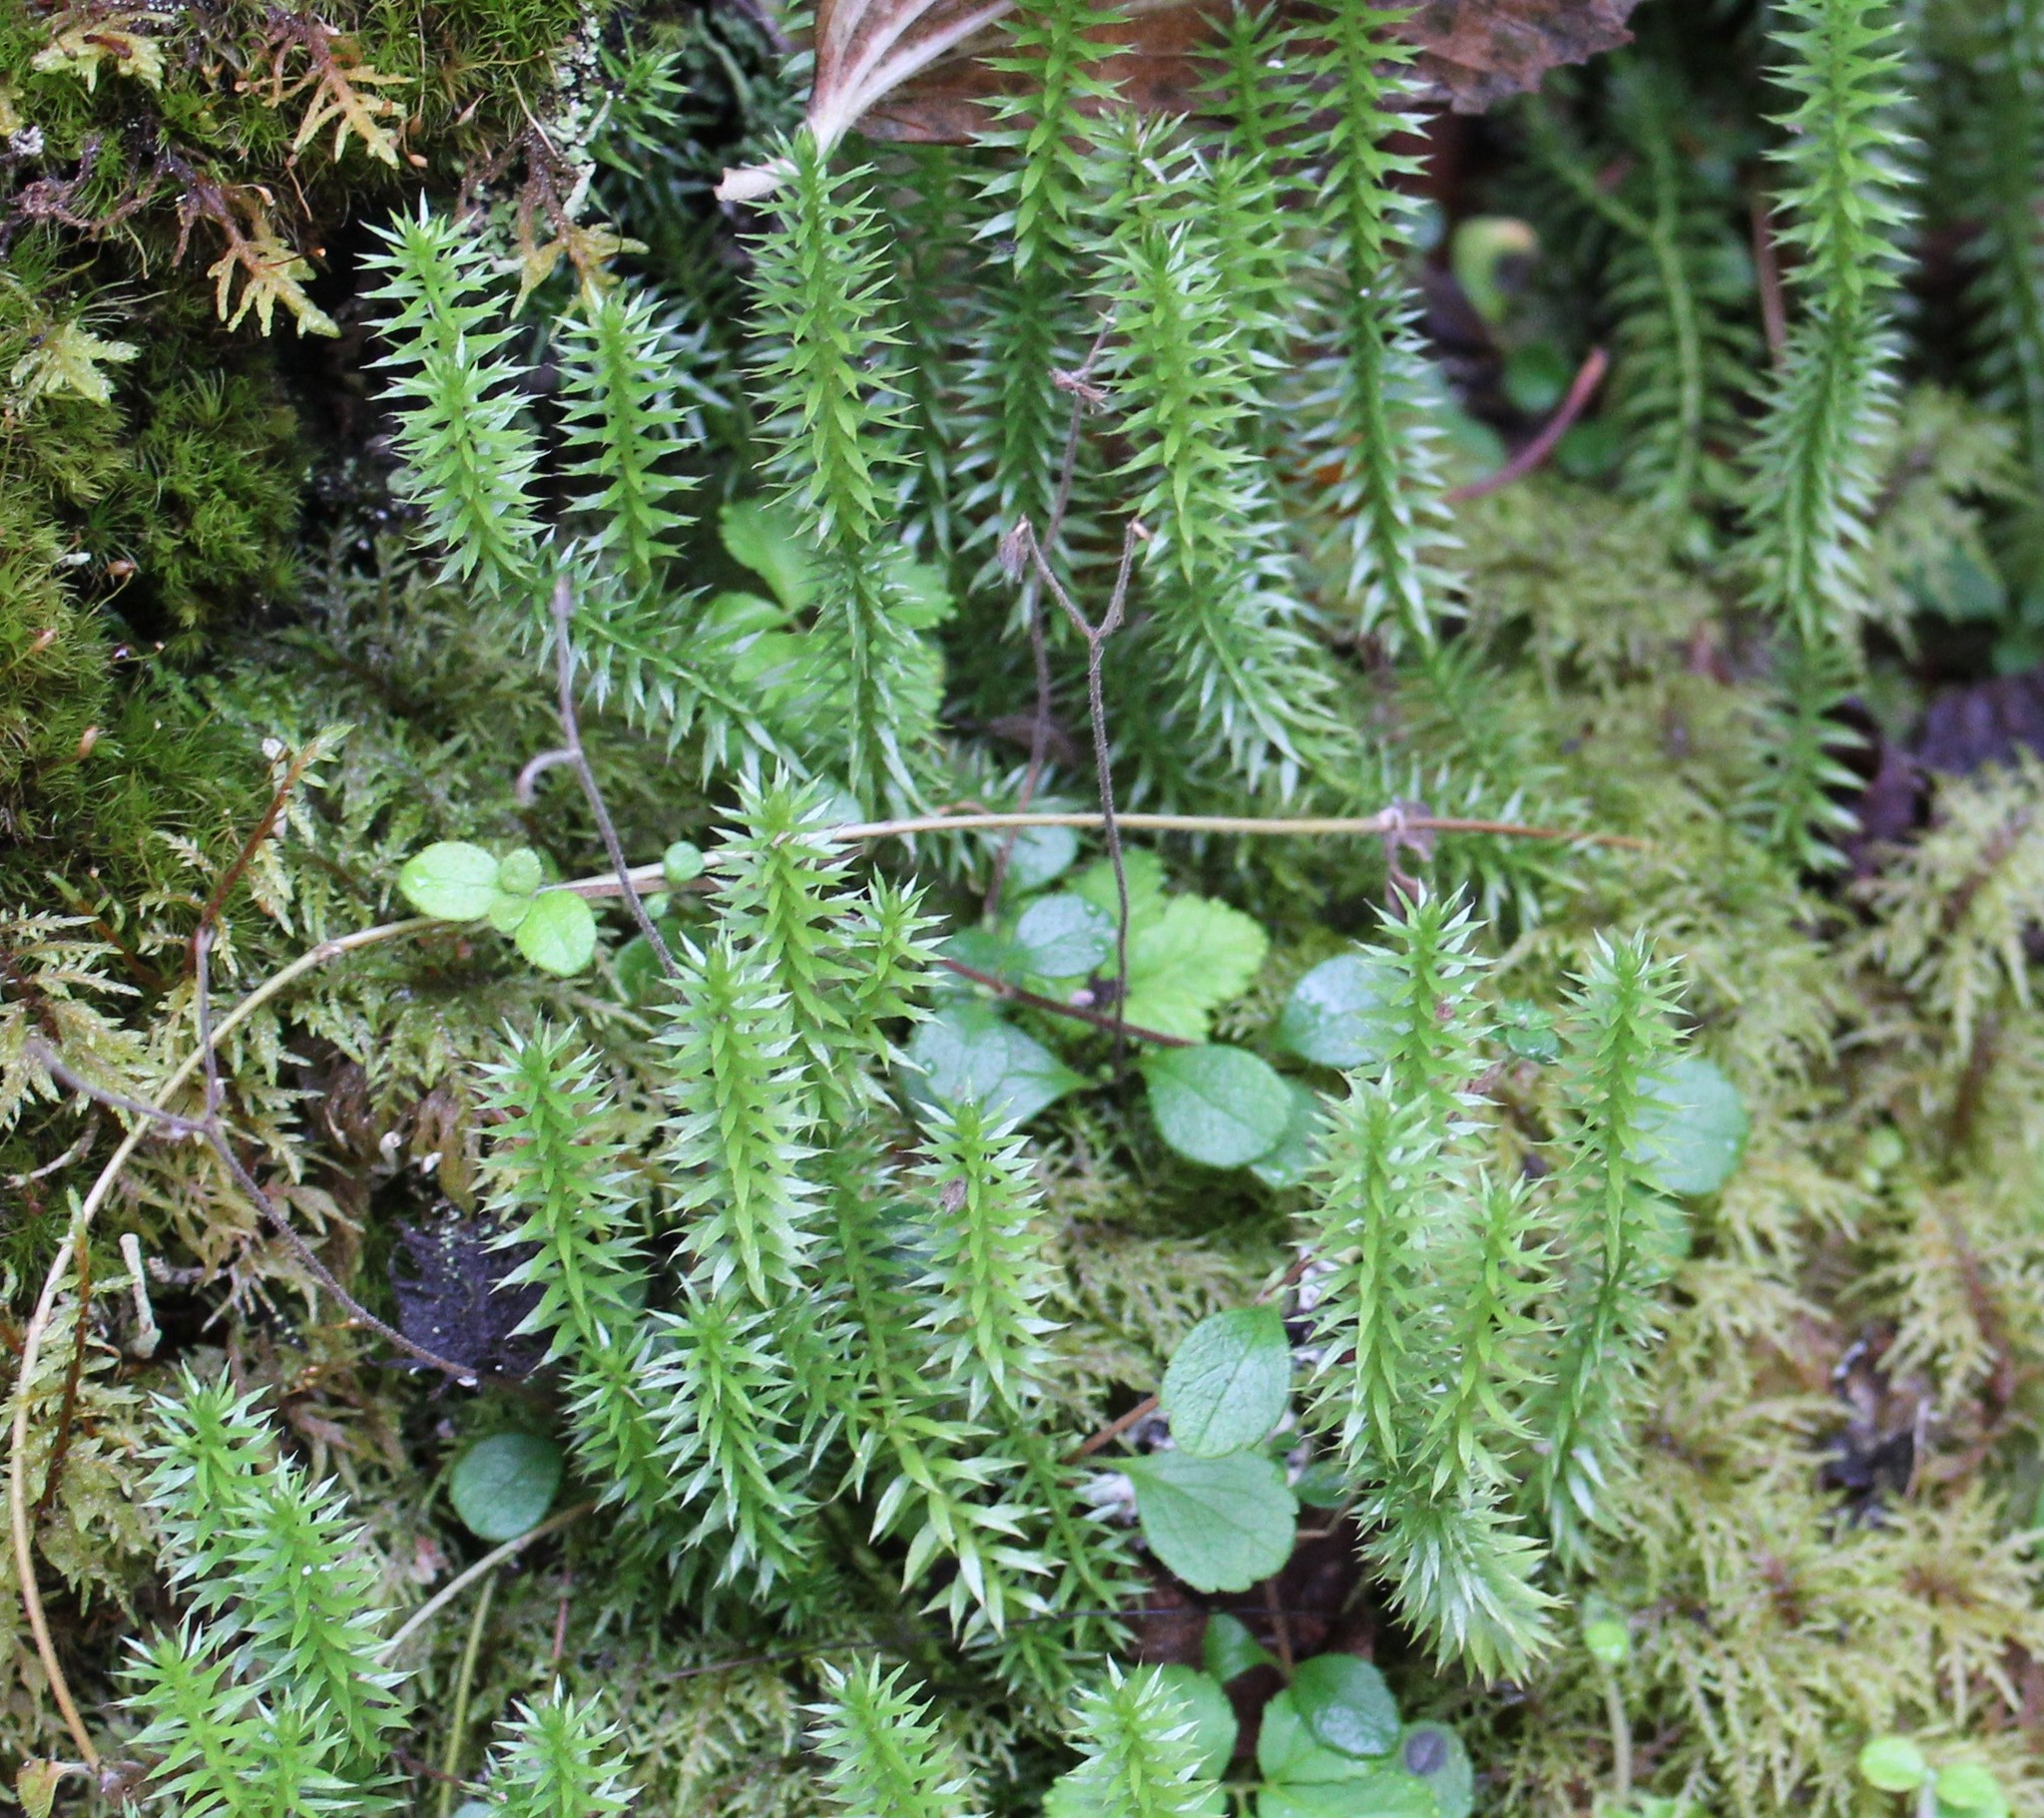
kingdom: Plantae
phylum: Tracheophyta
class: Lycopodiopsida
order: Lycopodiales
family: Lycopodiaceae
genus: Spinulum
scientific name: Spinulum annotinum
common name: Interrupted club-moss
